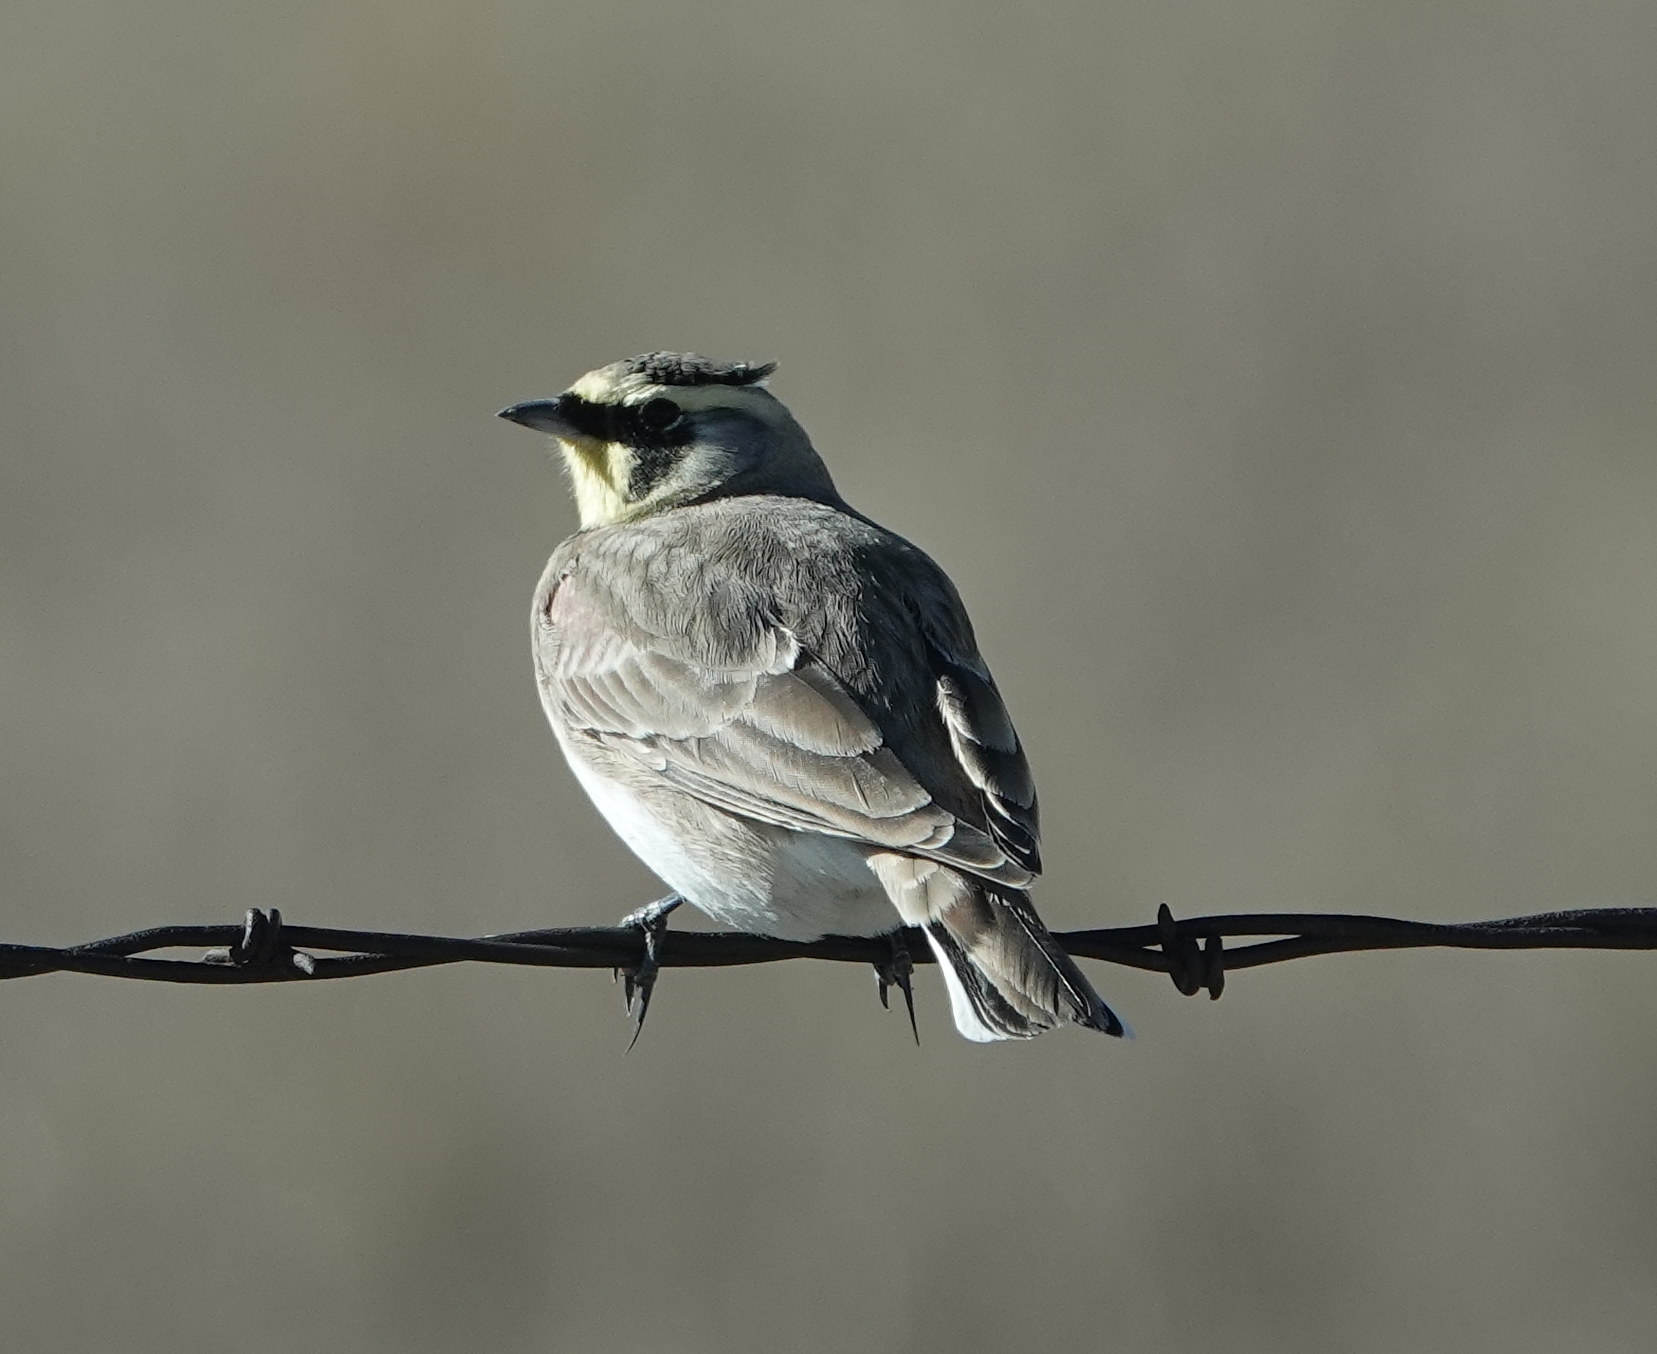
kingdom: Animalia
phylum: Chordata
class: Aves
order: Passeriformes
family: Alaudidae
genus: Eremophila
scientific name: Eremophila alpestris
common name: Horned lark
